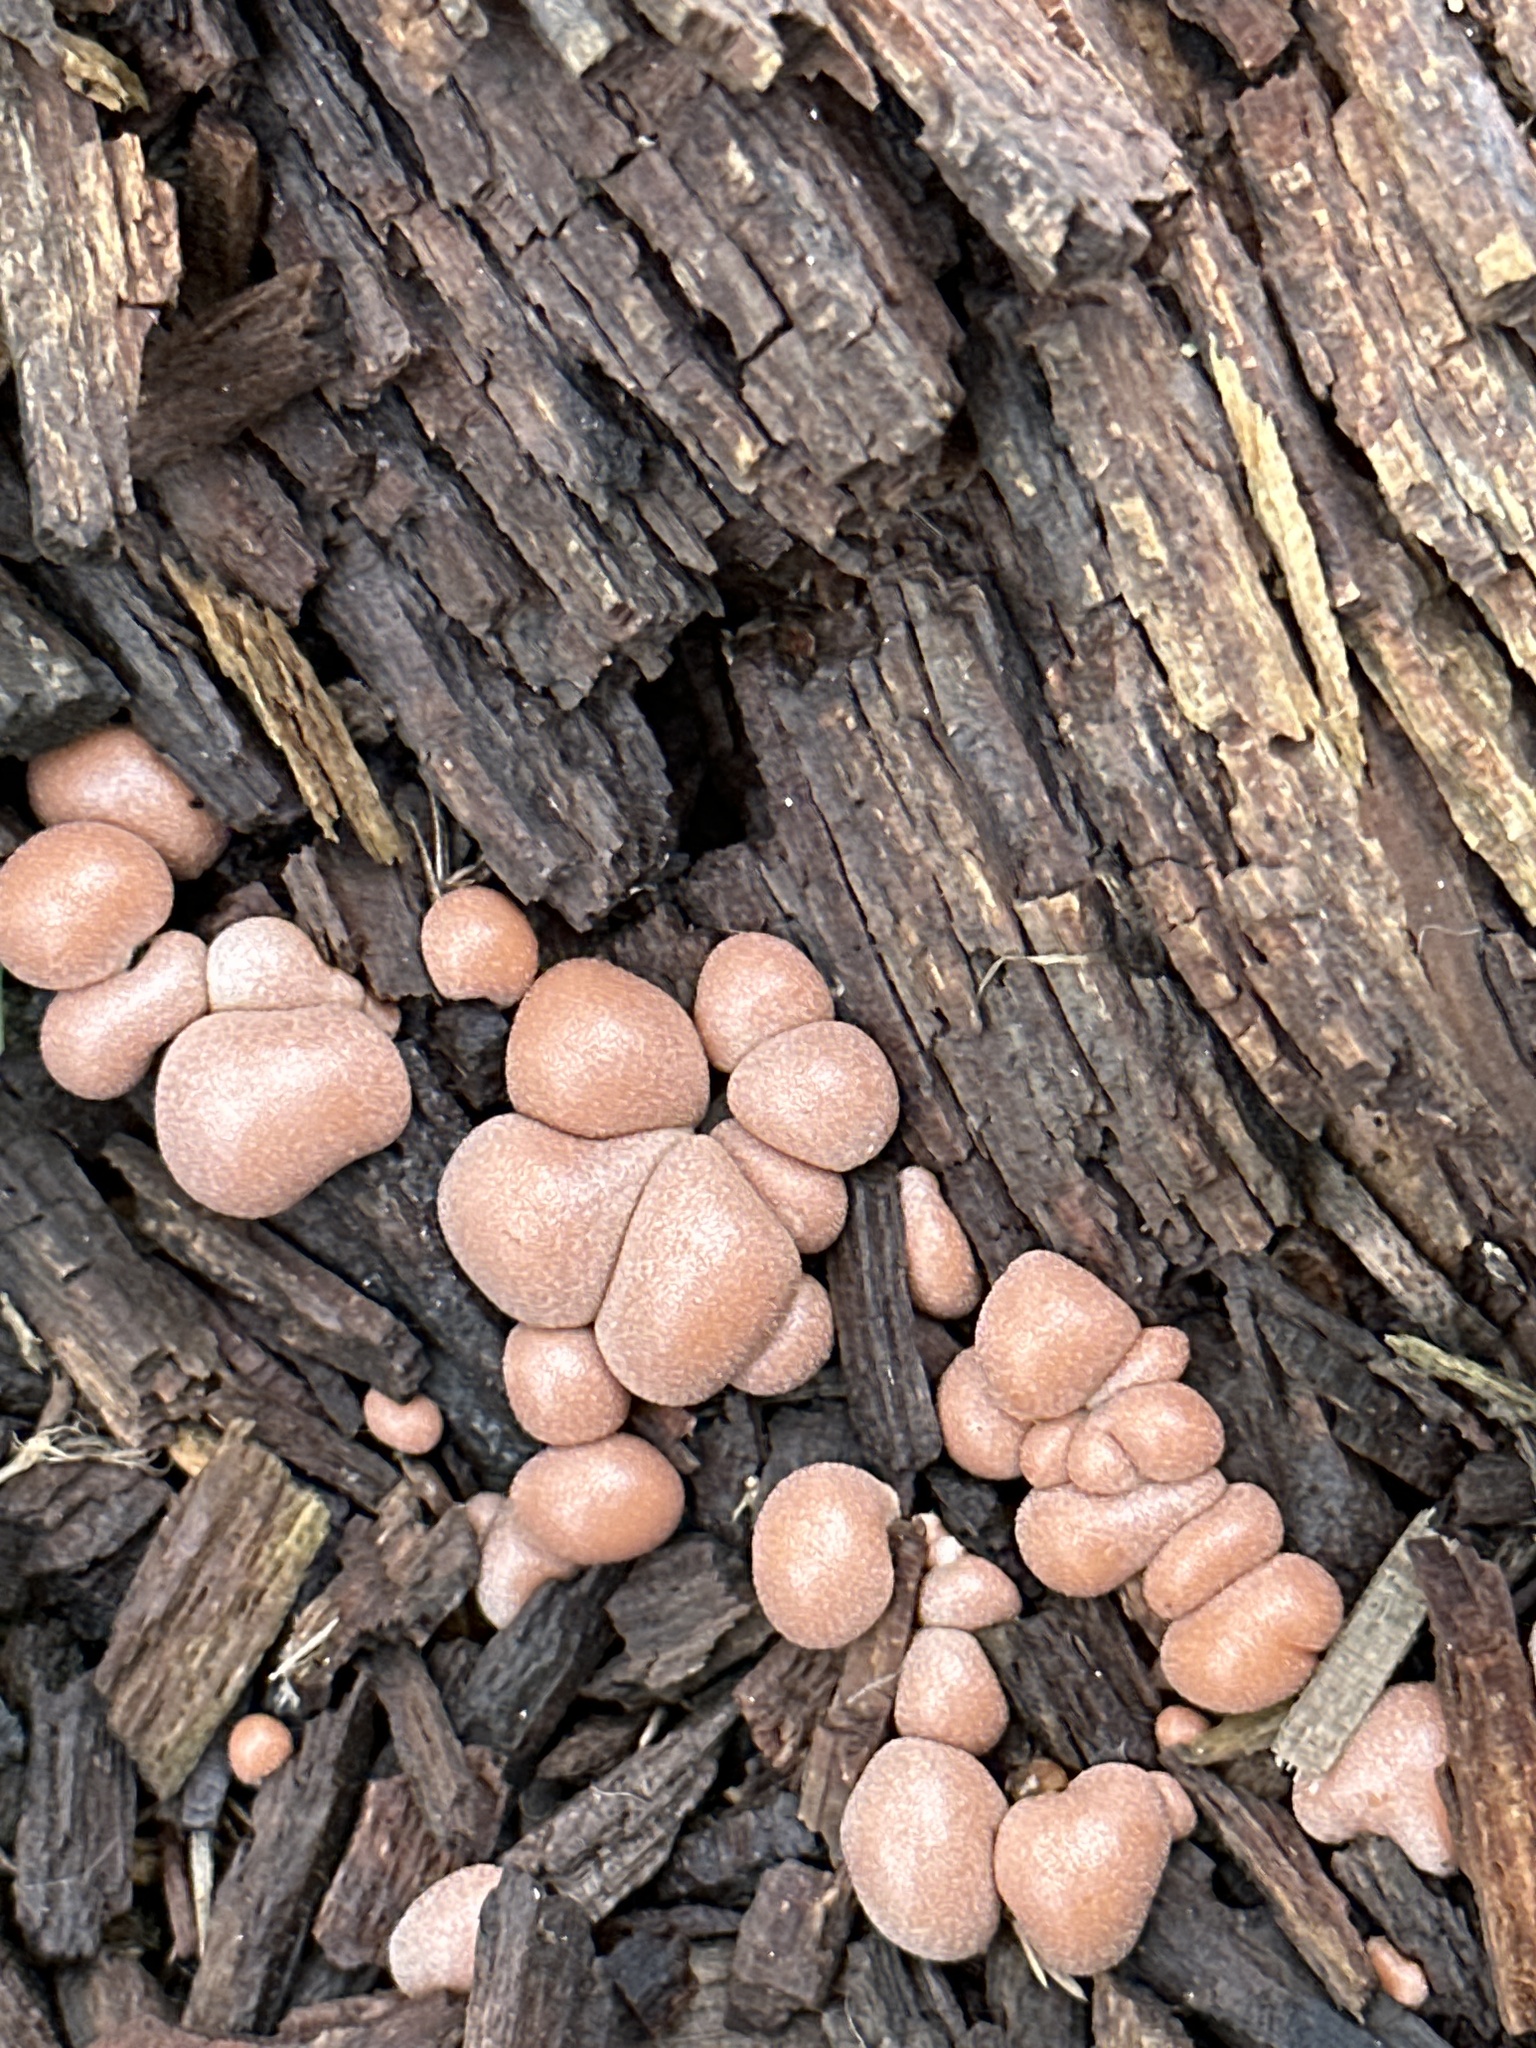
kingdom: Protozoa
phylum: Mycetozoa
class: Myxomycetes
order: Cribrariales
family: Tubiferaceae
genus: Lycogala
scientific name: Lycogala epidendrum
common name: Wolf's milk
